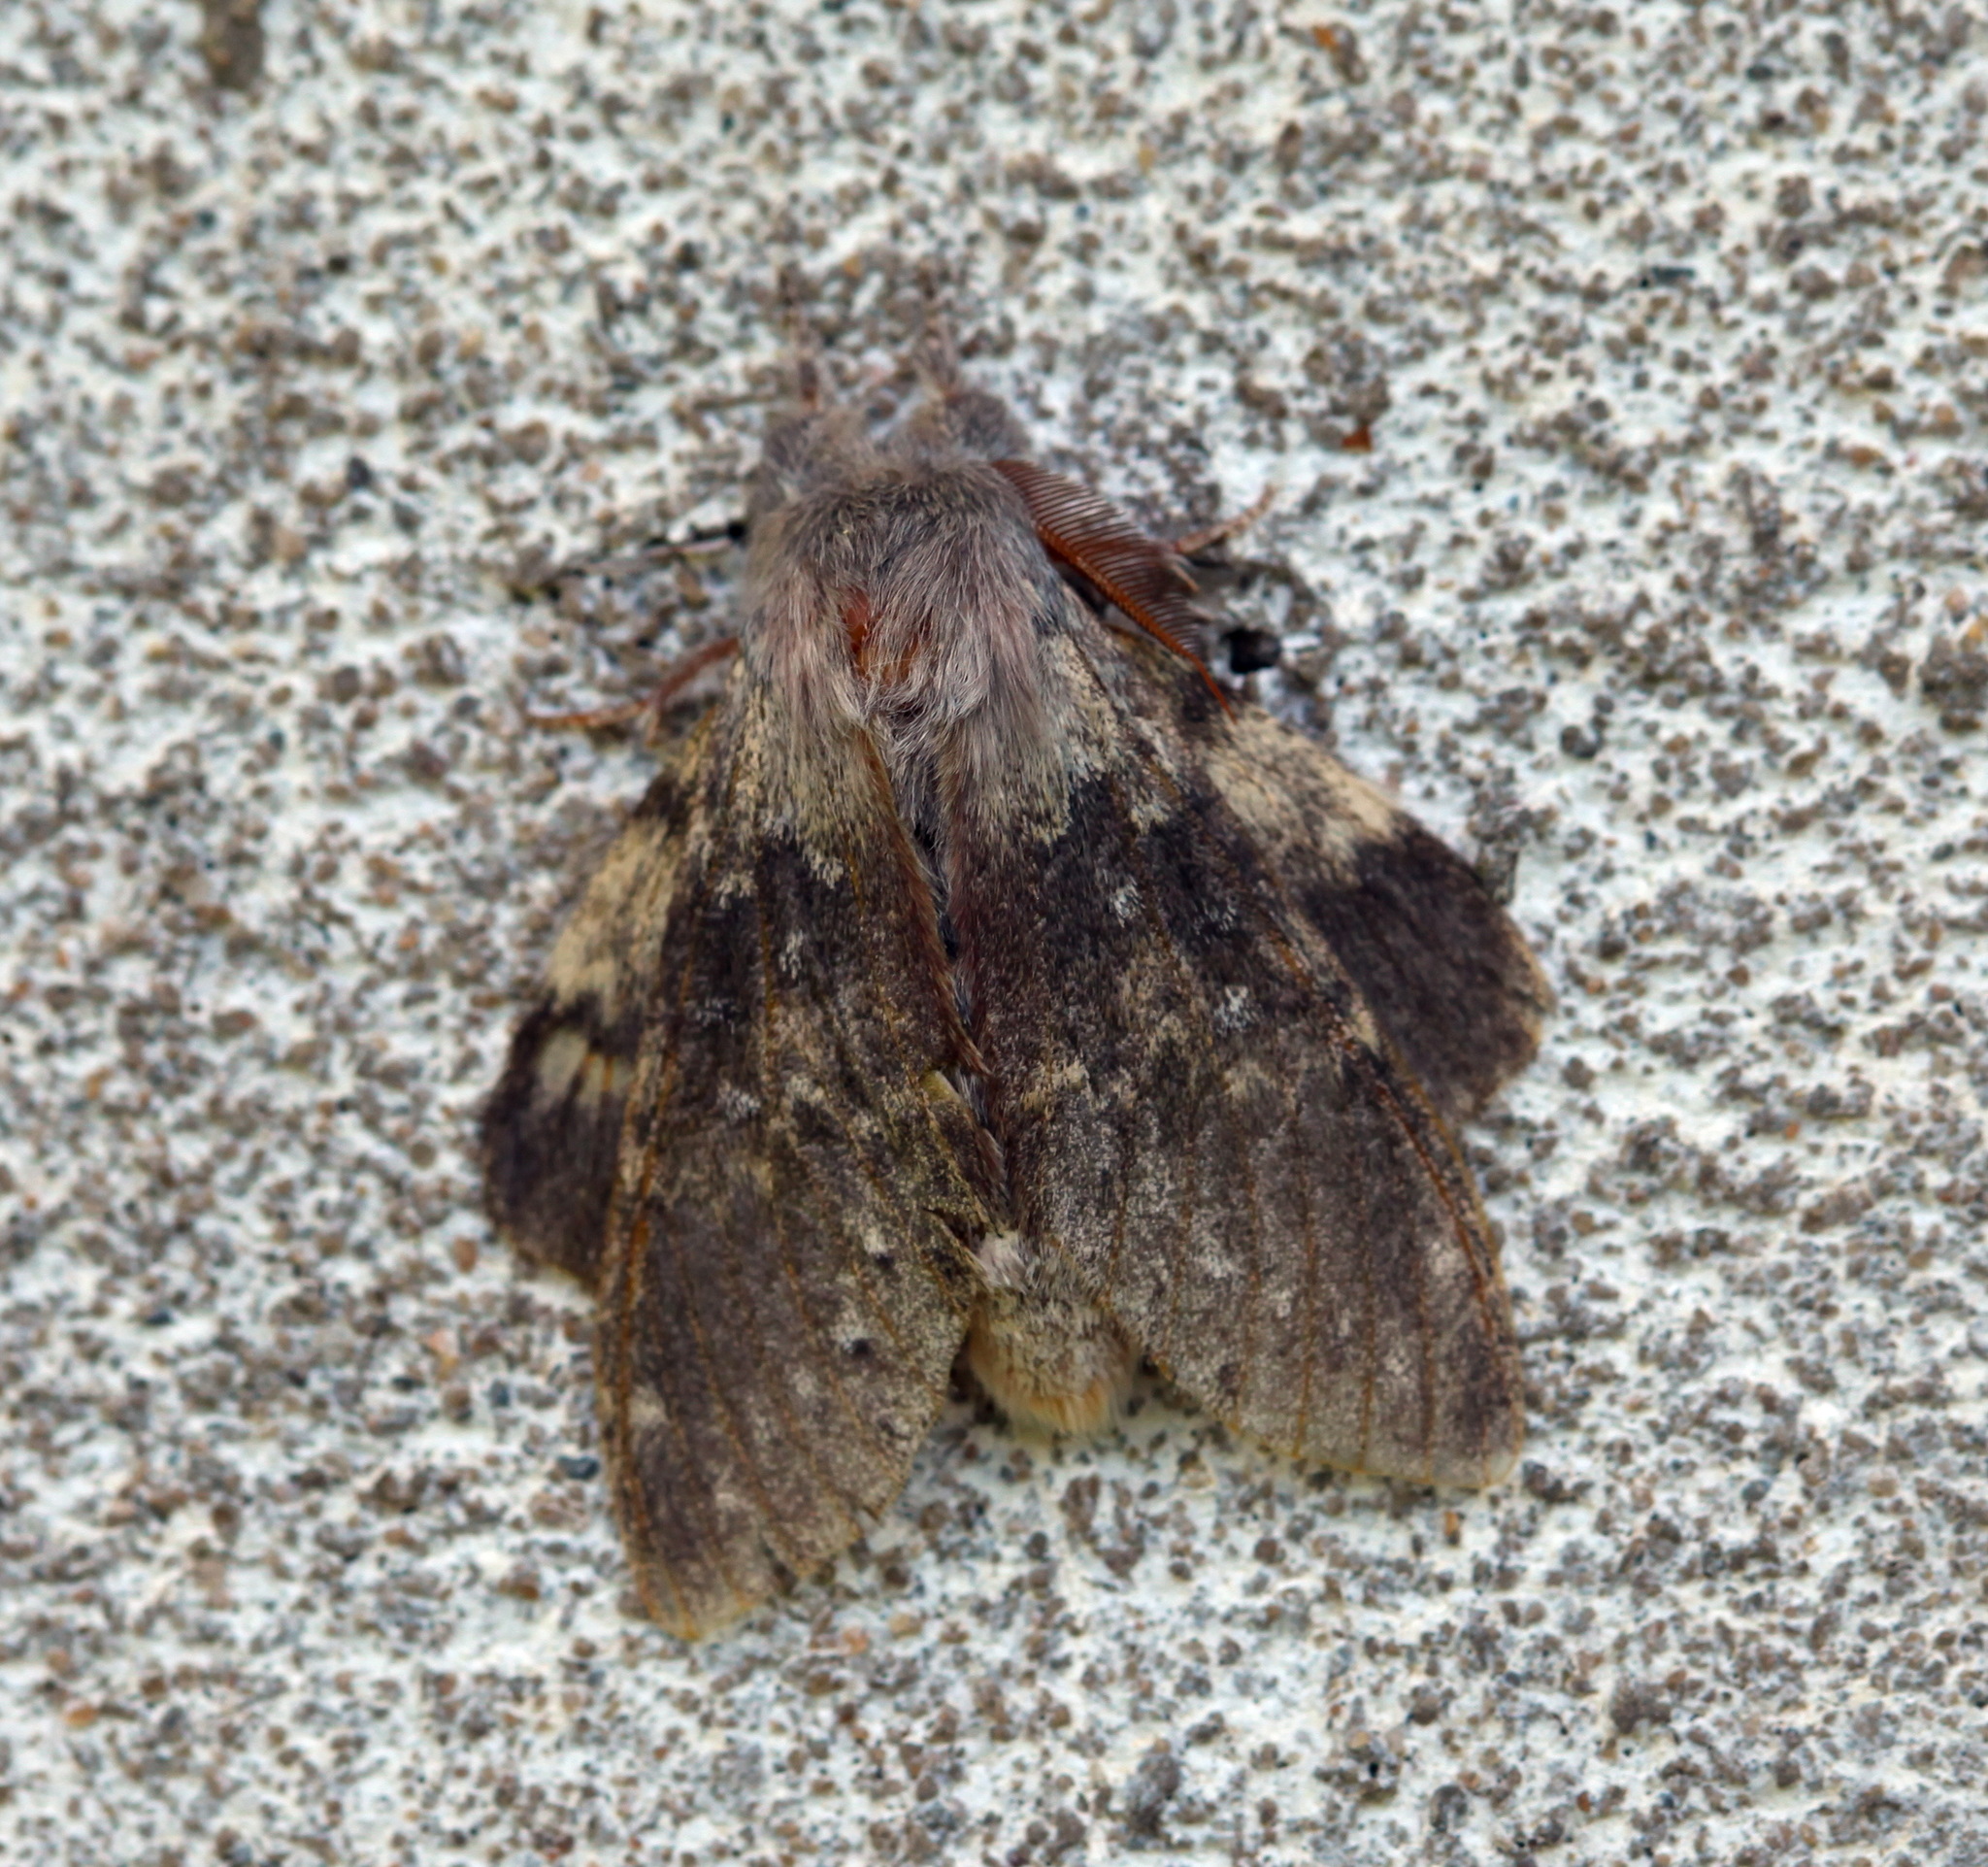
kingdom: Animalia
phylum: Arthropoda
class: Insecta
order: Lepidoptera
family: Notodontidae
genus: Stauropus
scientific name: Stauropus fagi
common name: Lobster moth
